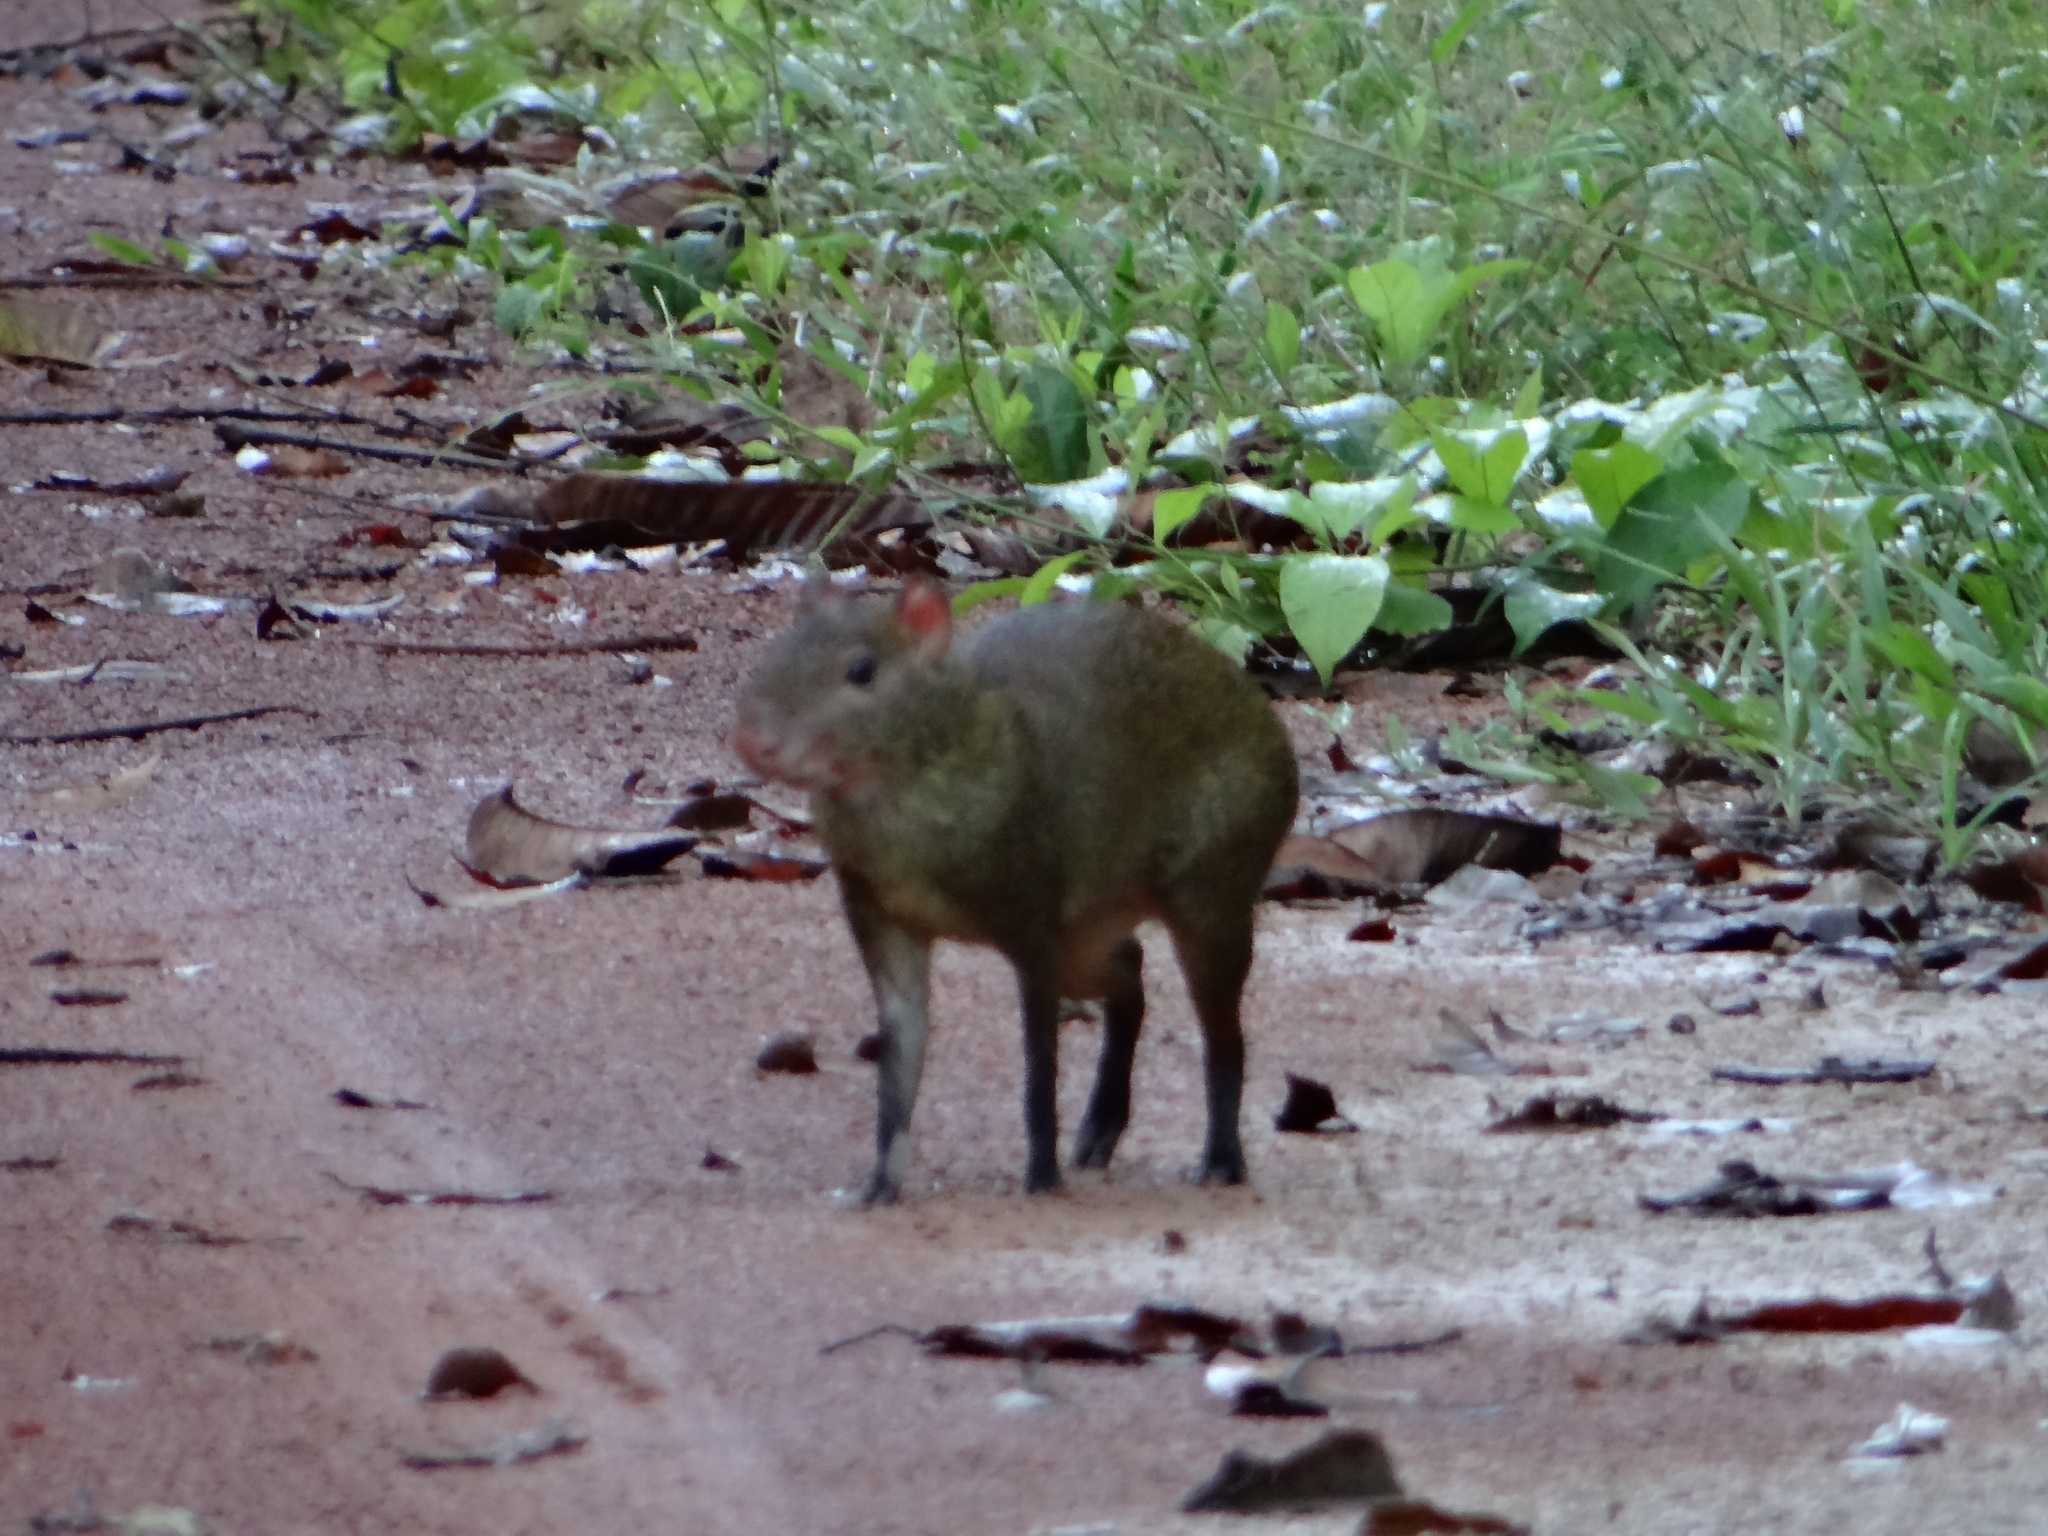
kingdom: Animalia
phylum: Chordata
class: Mammalia
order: Rodentia
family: Dasyproctidae
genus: Dasyprocta
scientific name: Dasyprocta variegata
